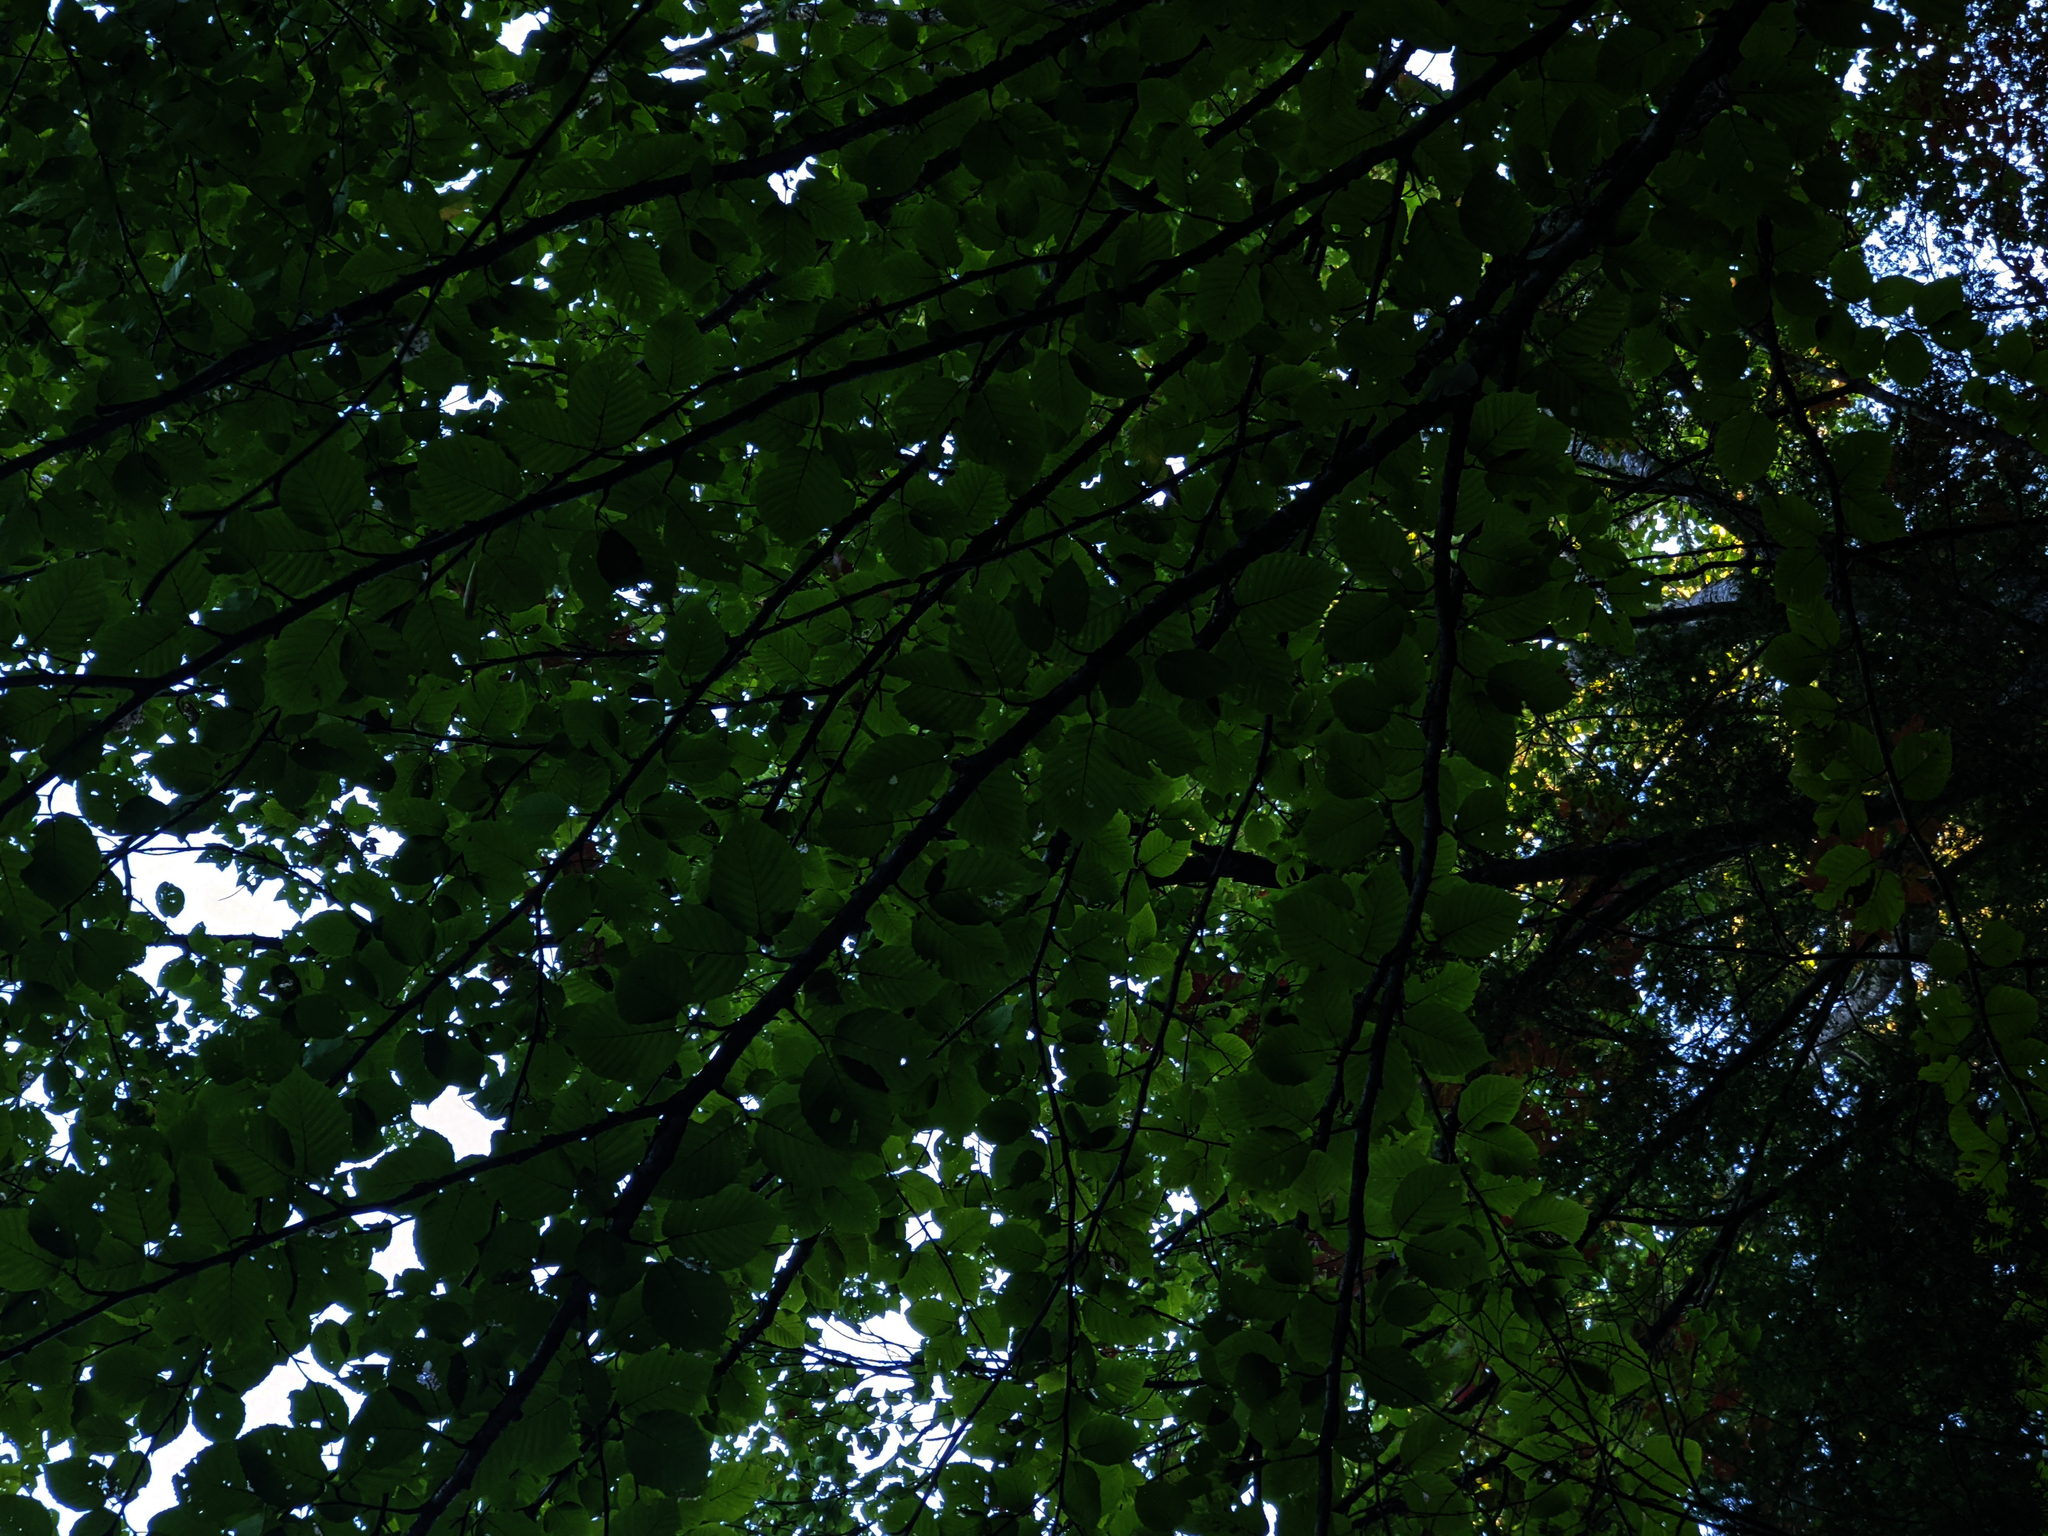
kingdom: Plantae
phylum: Tracheophyta
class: Magnoliopsida
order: Fagales
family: Betulaceae
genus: Betula
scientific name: Betula alleghaniensis
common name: Yellow birch
